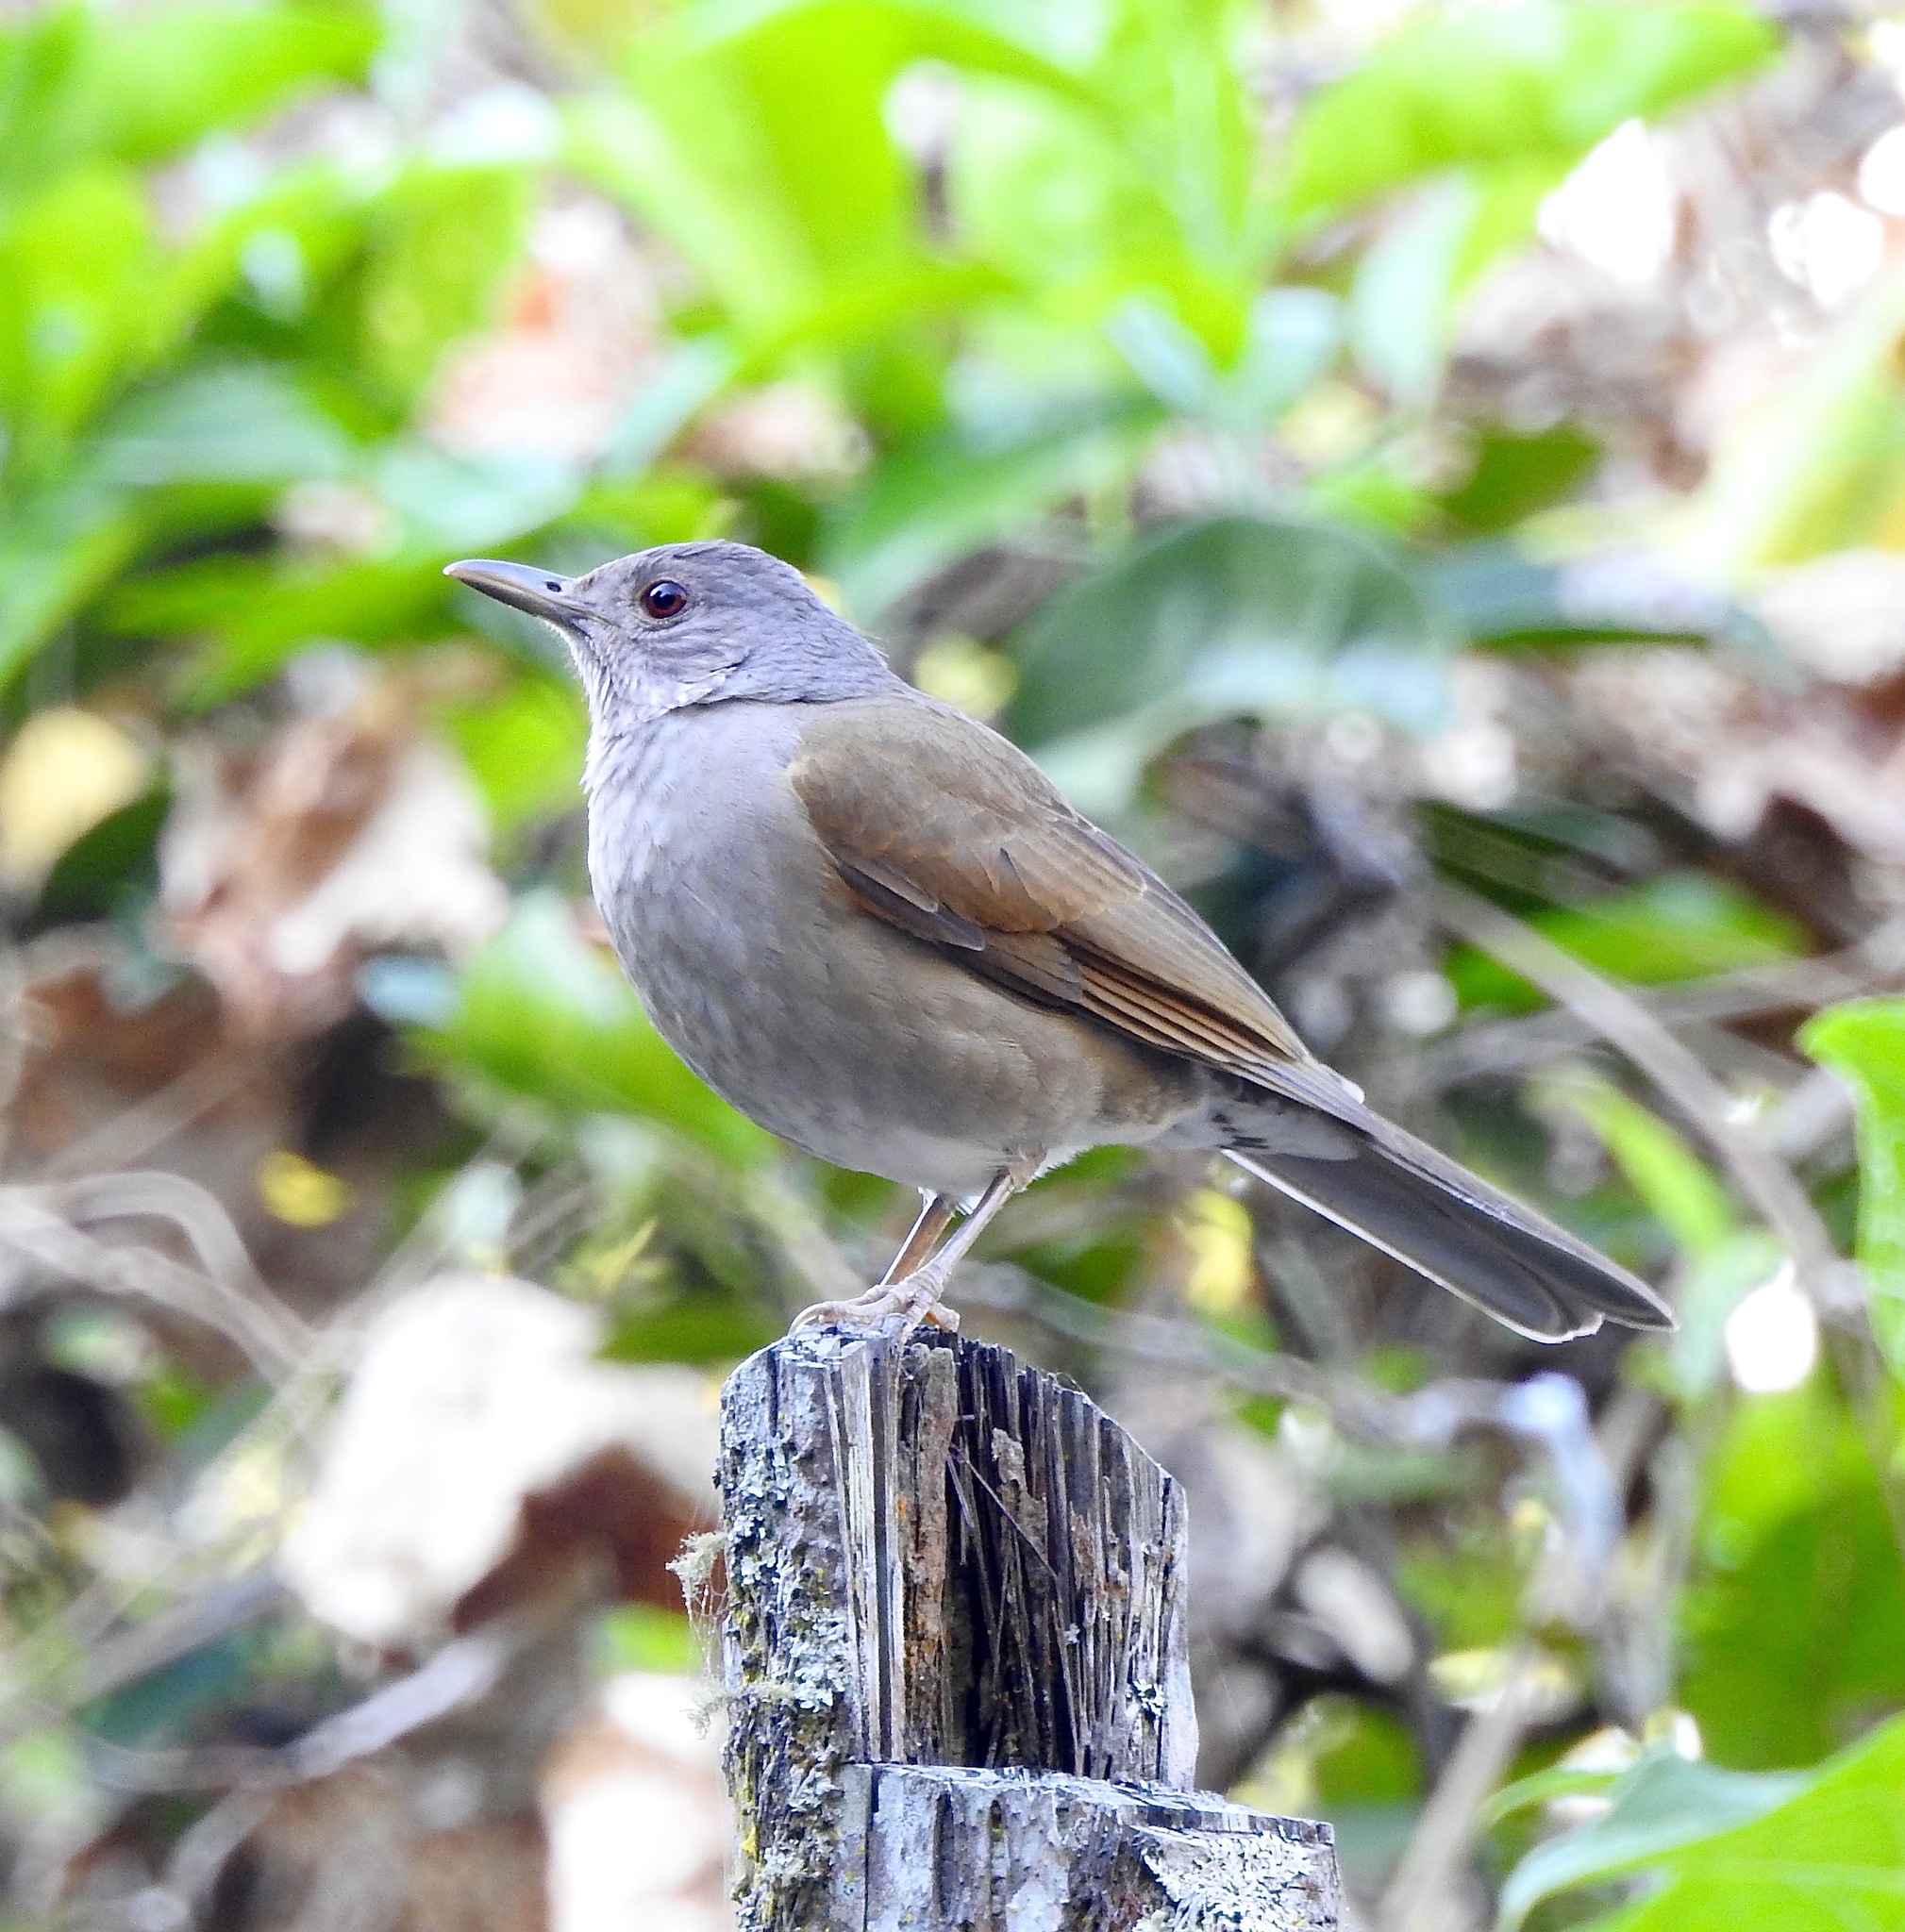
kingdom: Animalia
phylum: Chordata
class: Aves
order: Passeriformes
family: Turdidae
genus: Turdus
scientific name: Turdus leucomelas
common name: Pale-breasted thrush
